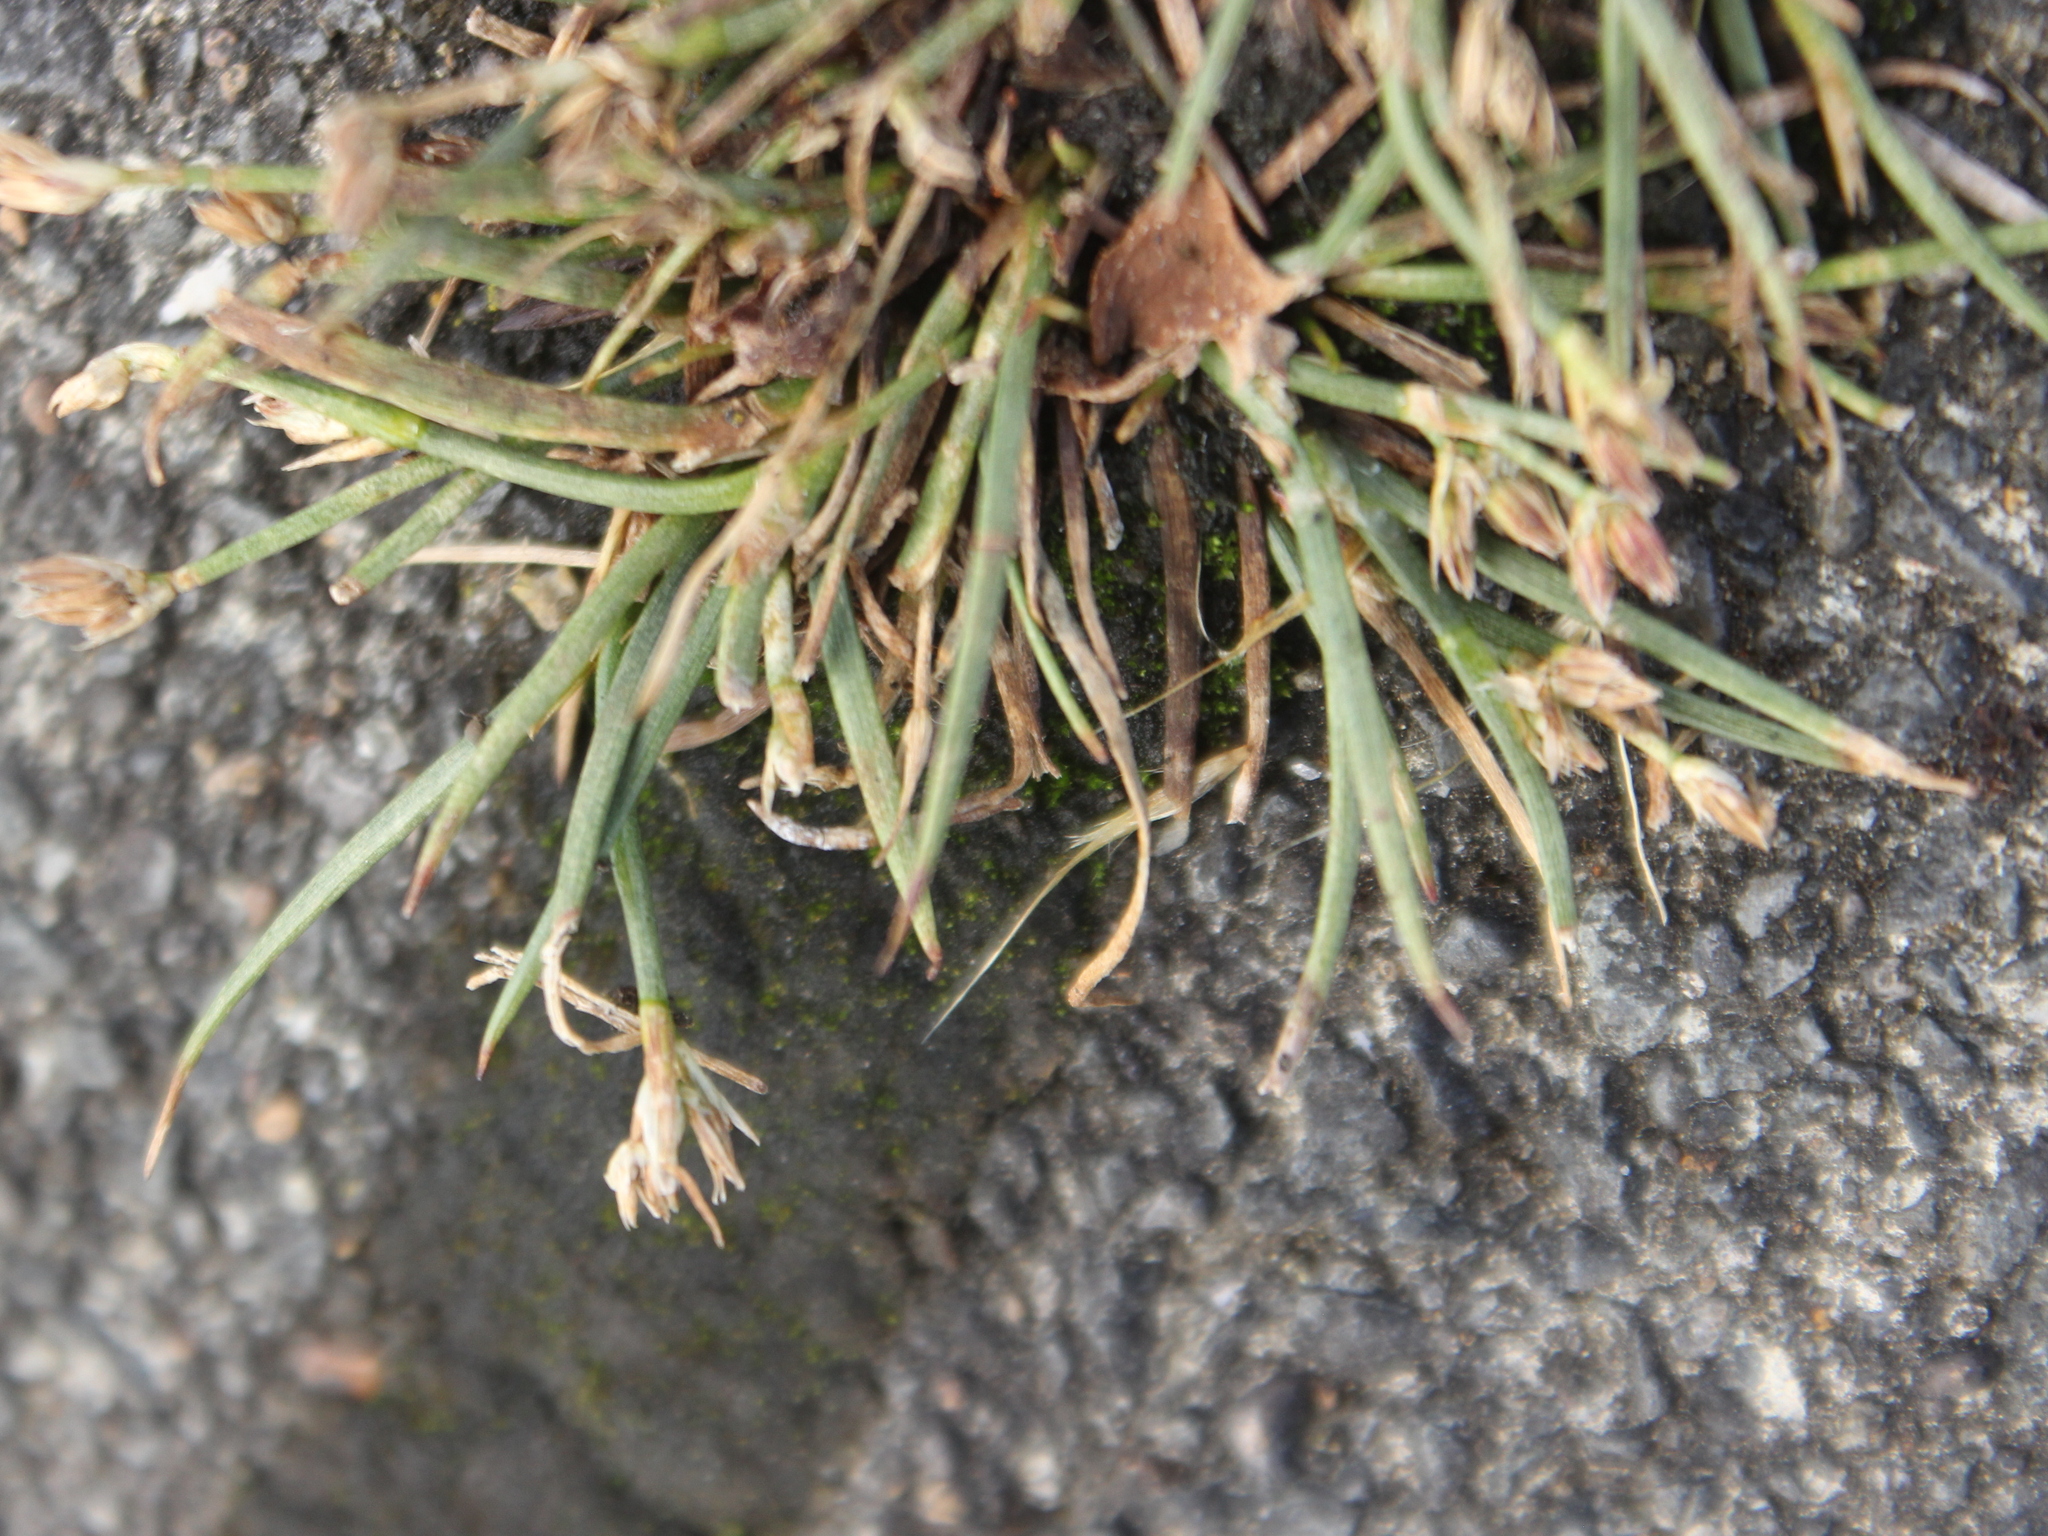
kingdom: Plantae
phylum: Tracheophyta
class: Liliopsida
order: Poales
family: Juncaceae
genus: Juncus
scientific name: Juncus articulatus
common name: Jointed rush
